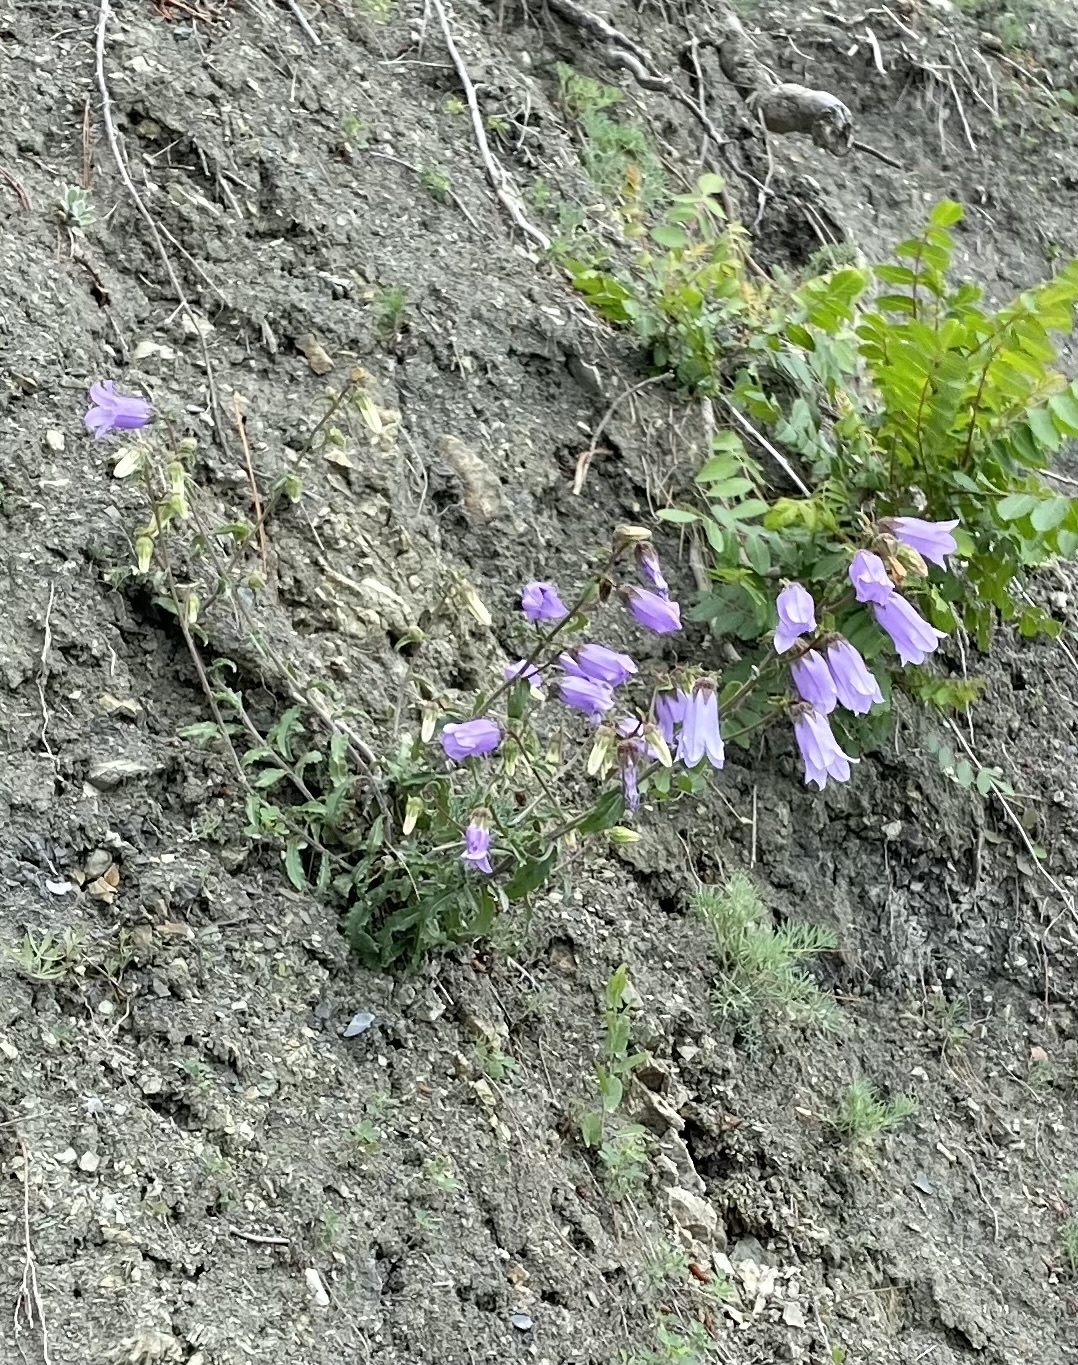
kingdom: Plantae
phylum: Tracheophyta
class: Magnoliopsida
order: Asterales
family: Campanulaceae
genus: Campanula
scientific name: Campanula komarovii
